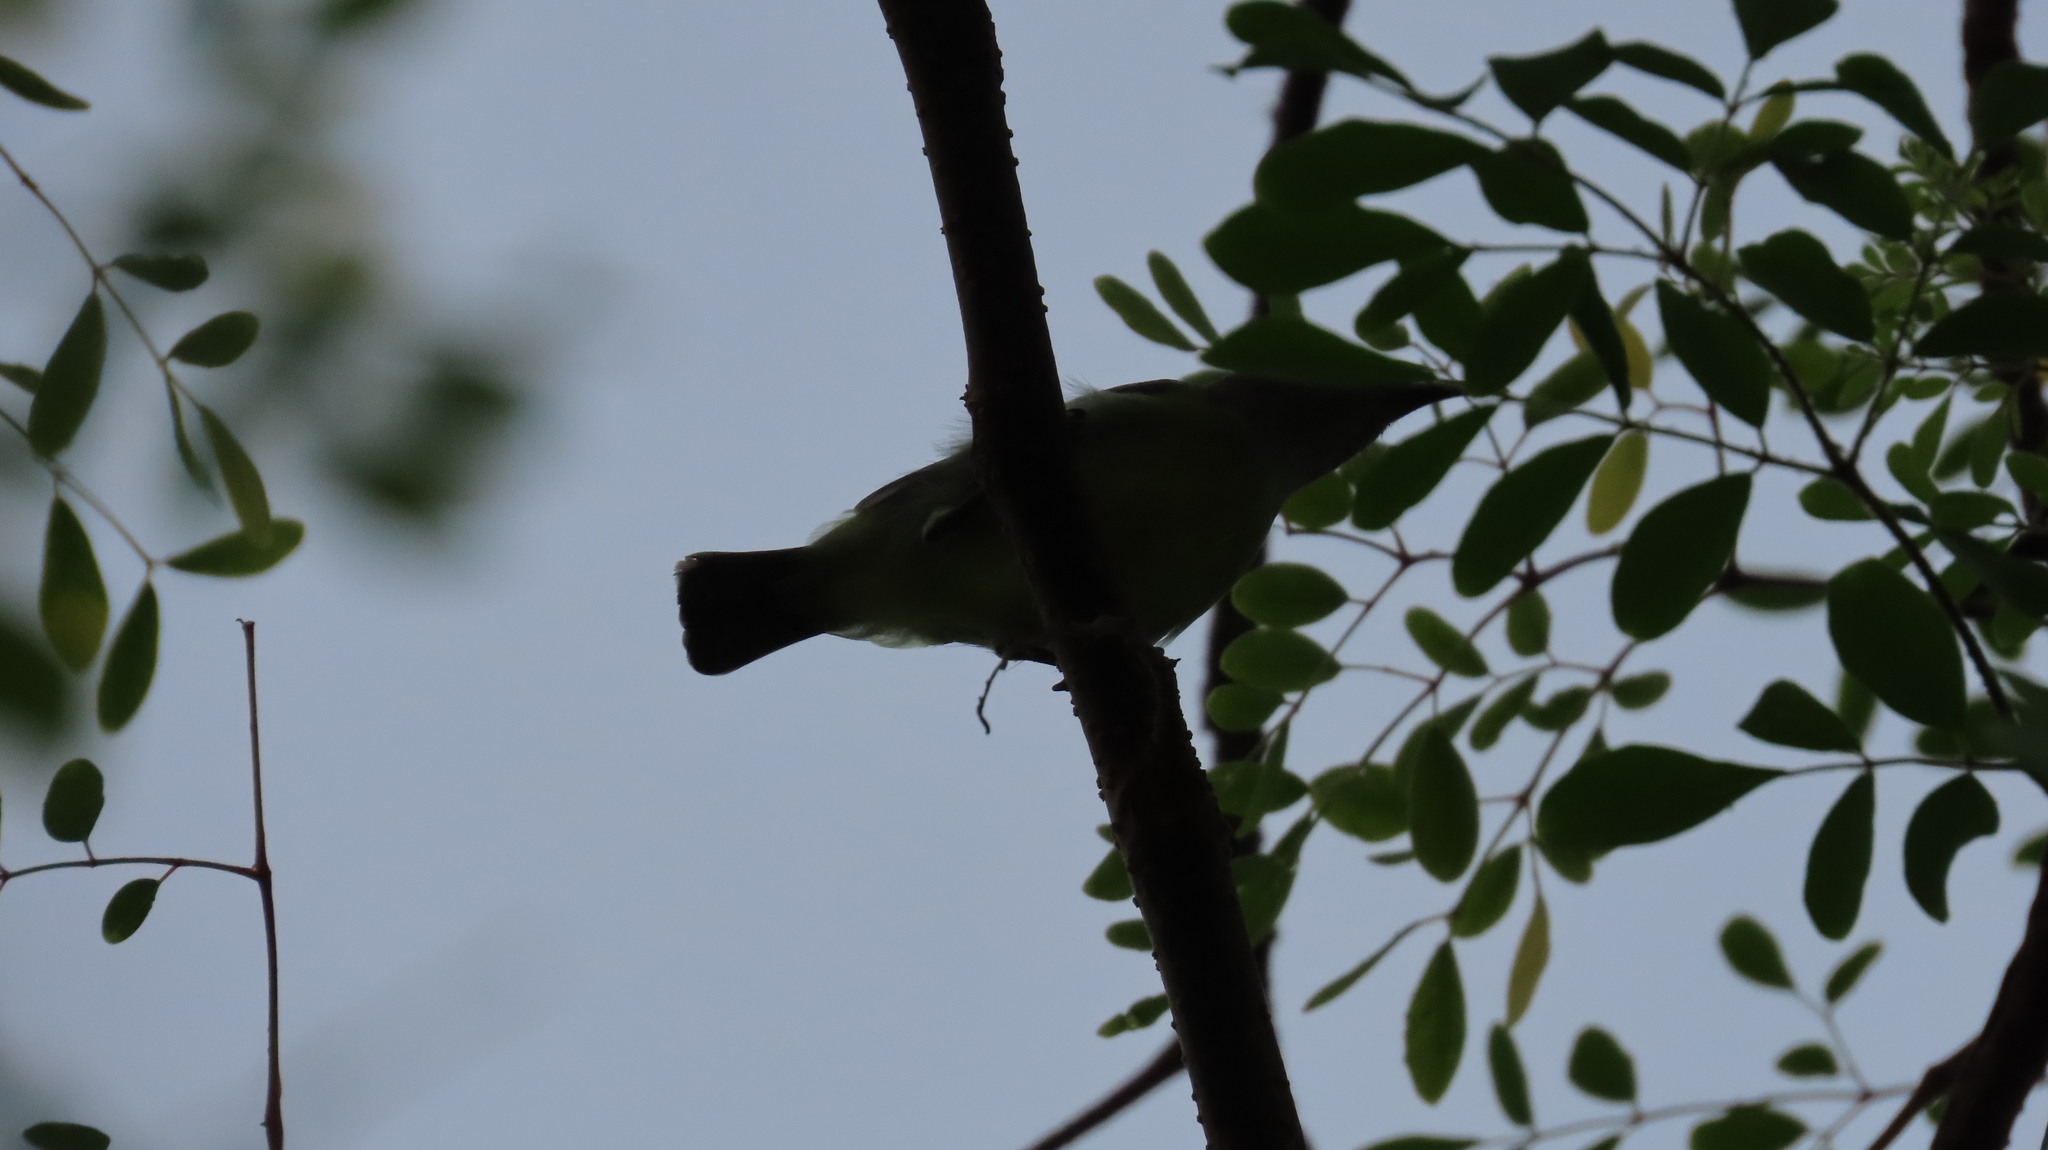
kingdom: Animalia
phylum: Chordata
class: Aves
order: Passeriformes
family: Nectariniidae
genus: Leptocoma
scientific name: Leptocoma zeylonica
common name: Purple-rumped sunbird
